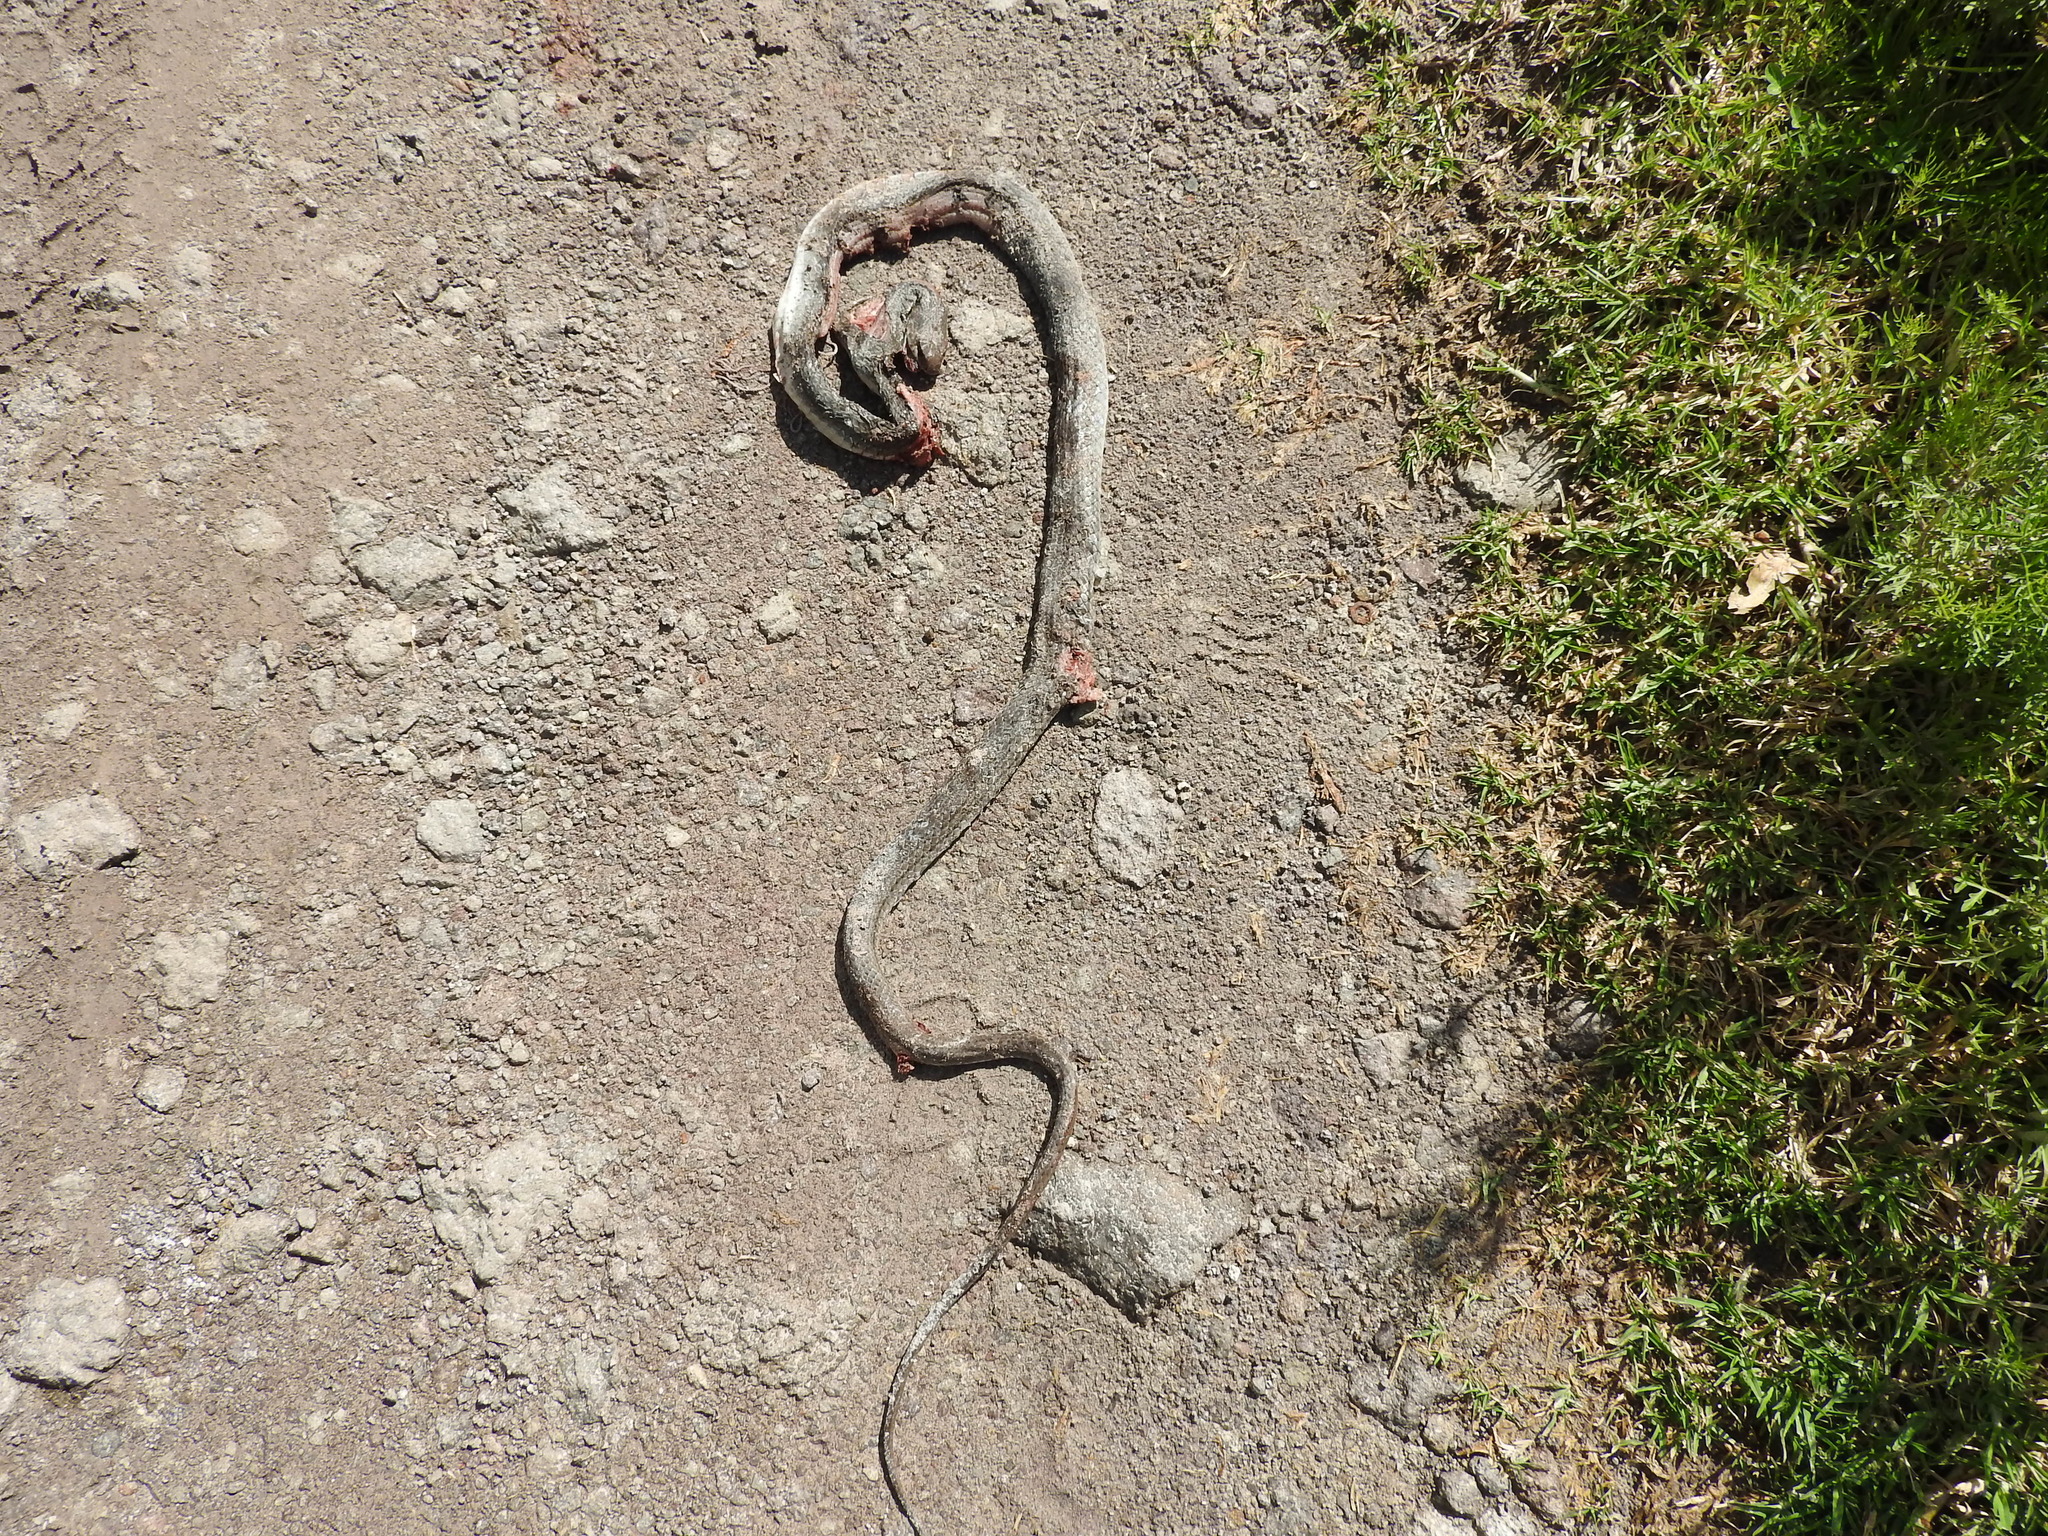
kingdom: Animalia
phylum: Chordata
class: Squamata
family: Colubridae
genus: Masticophis
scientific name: Masticophis mentovarius
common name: Neotropical whip snake
